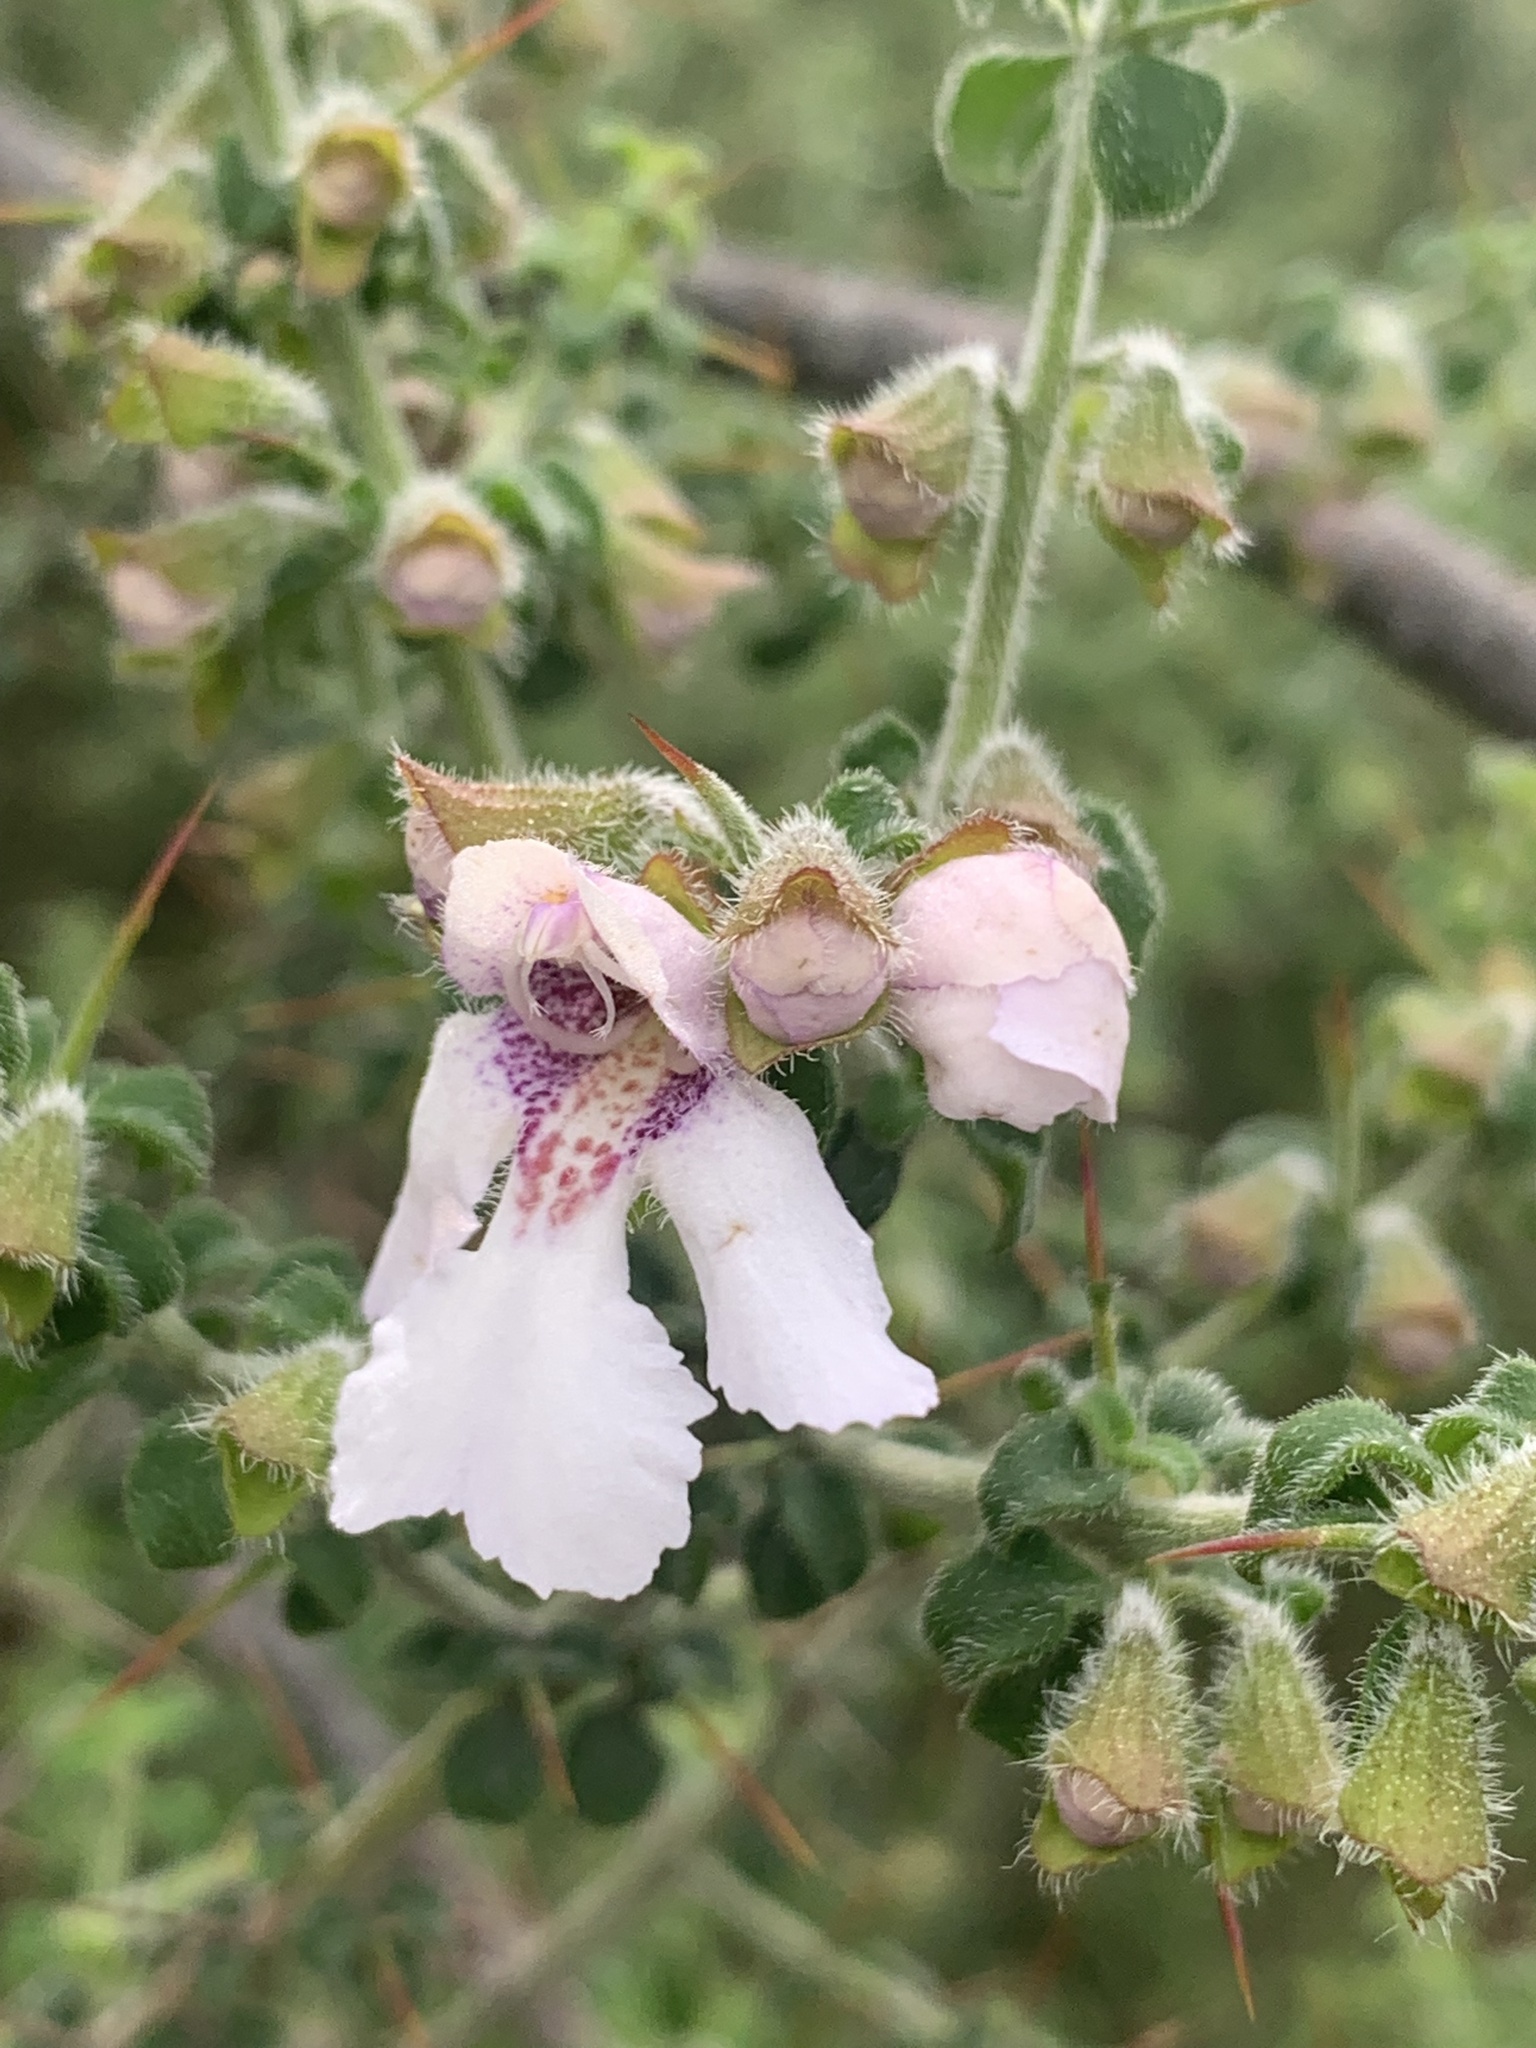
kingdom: Plantae
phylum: Tracheophyta
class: Magnoliopsida
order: Lamiales
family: Lamiaceae
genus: Prostanthera
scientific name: Prostanthera arapilensis
